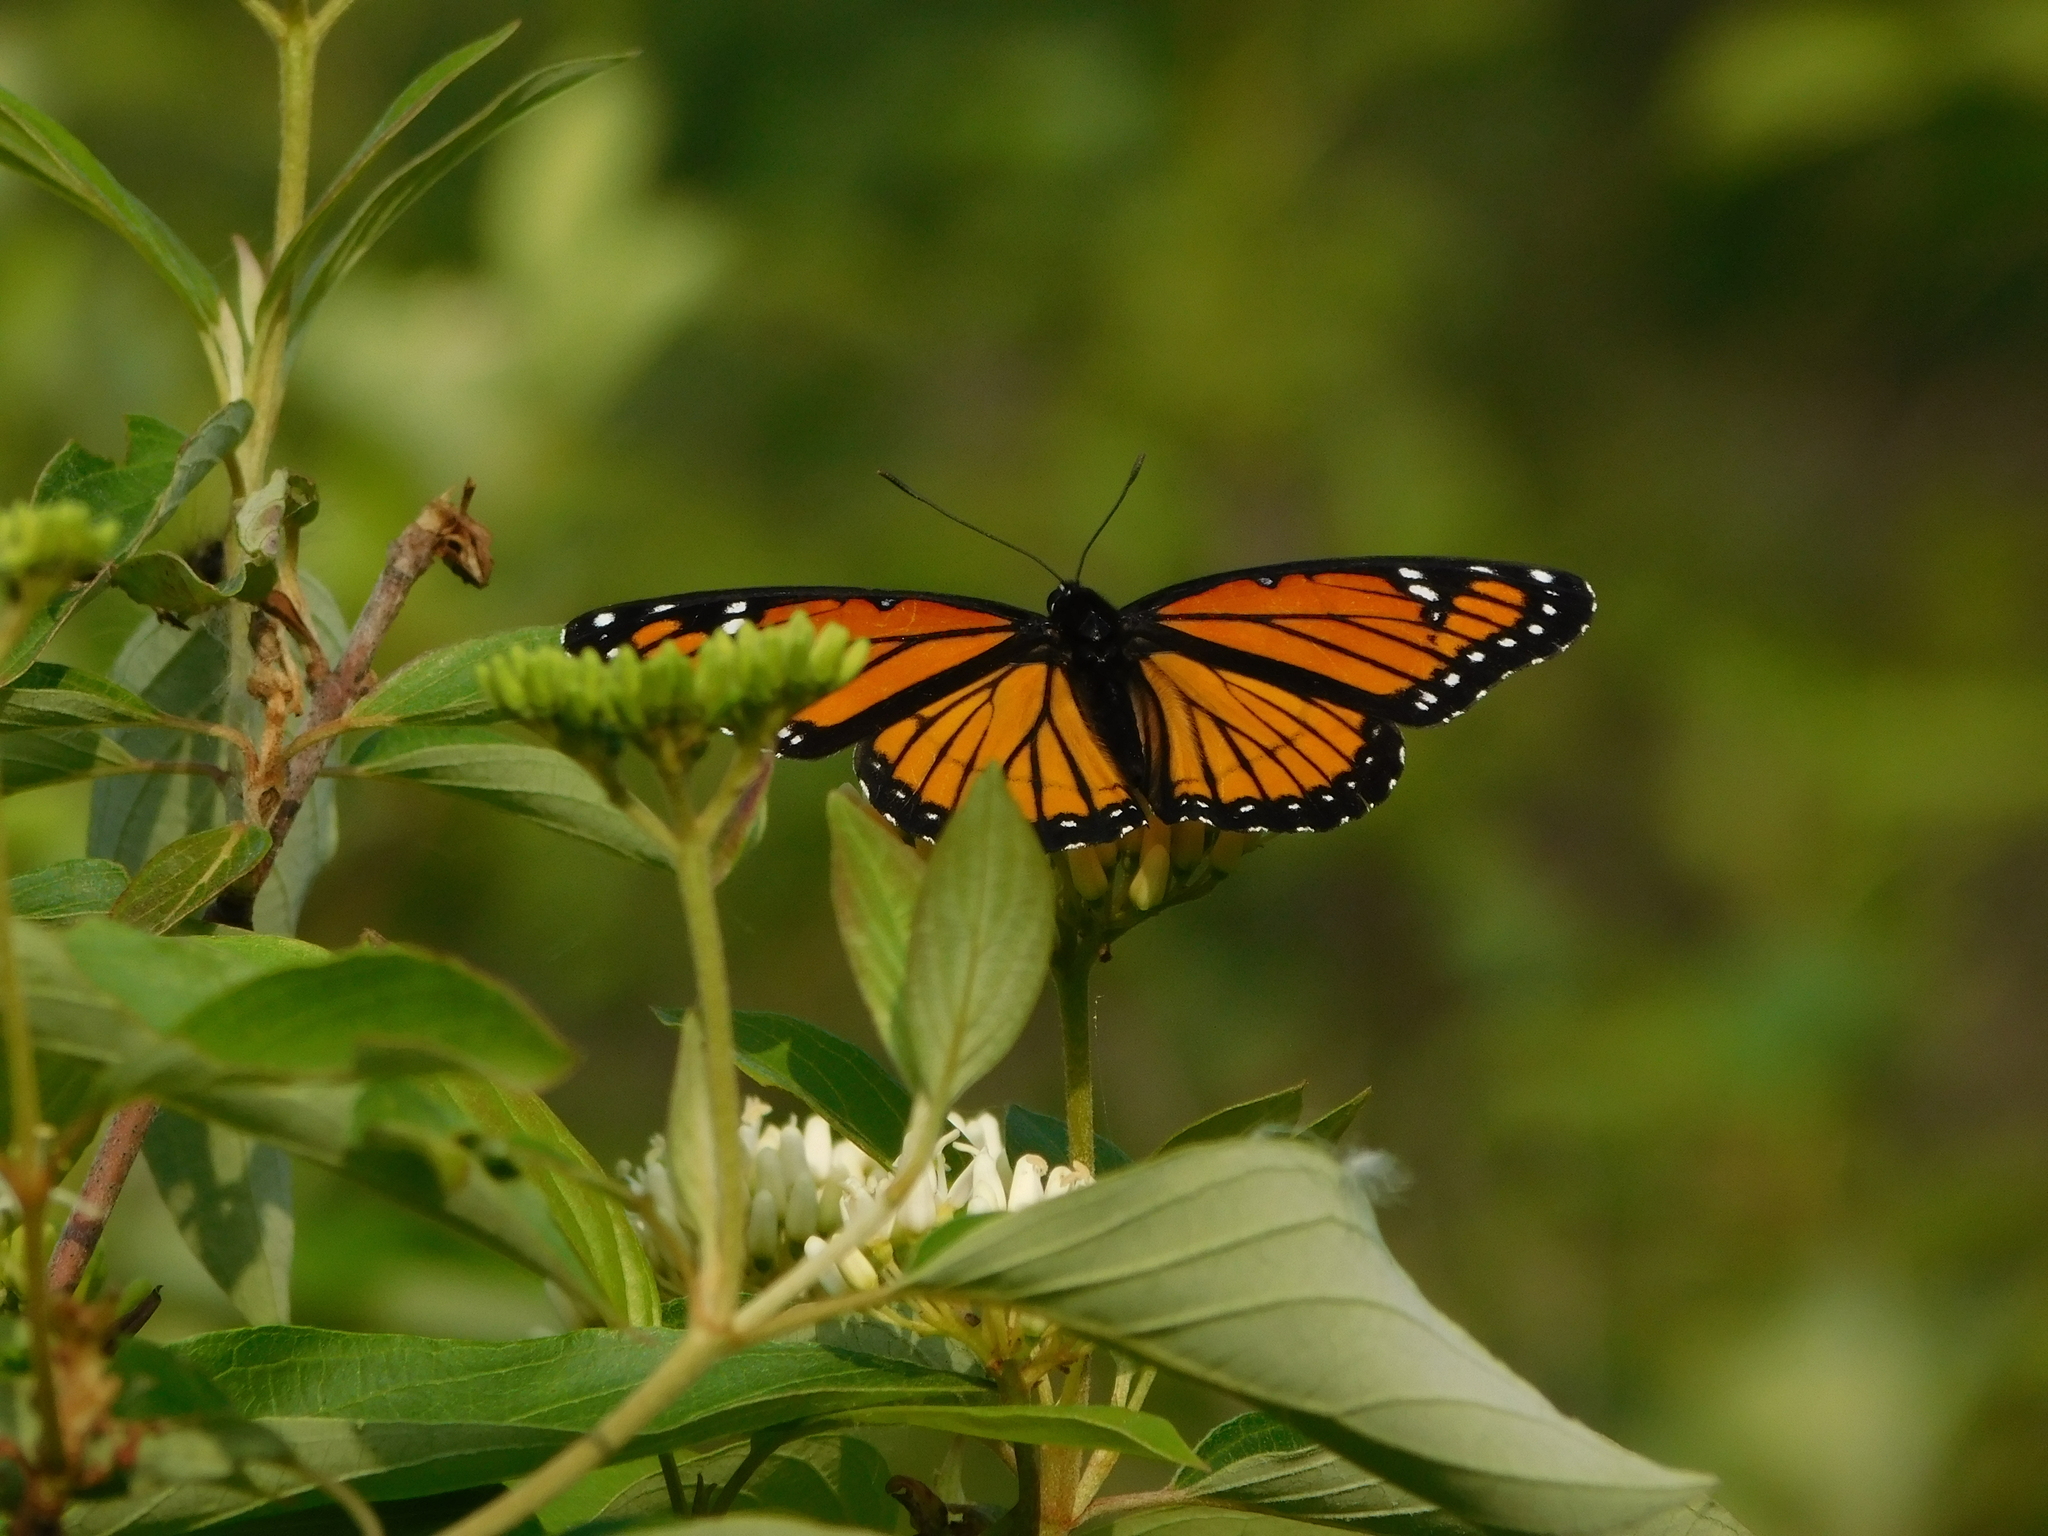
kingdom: Animalia
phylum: Arthropoda
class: Insecta
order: Lepidoptera
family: Nymphalidae
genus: Limenitis
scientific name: Limenitis archippus
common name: Viceroy
